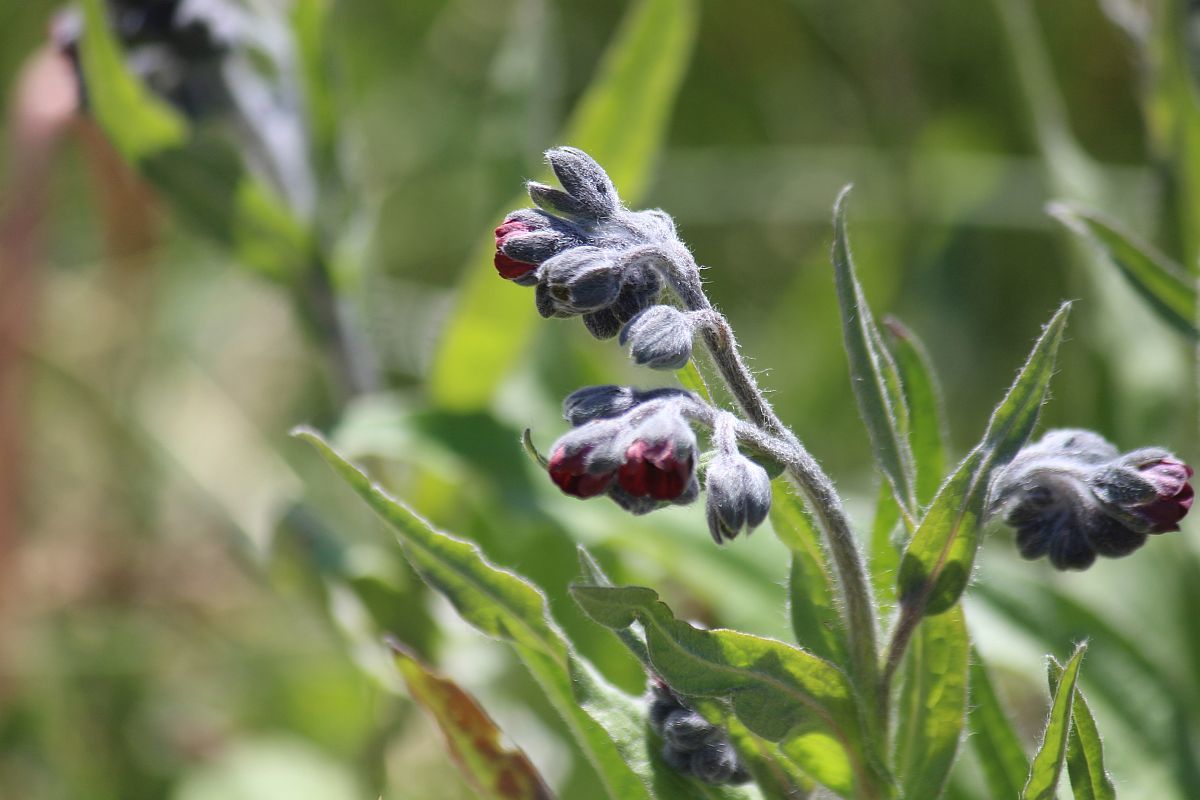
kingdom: Plantae
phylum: Tracheophyta
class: Magnoliopsida
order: Boraginales
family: Boraginaceae
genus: Cynoglossum
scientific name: Cynoglossum officinale
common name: Hound's-tongue
